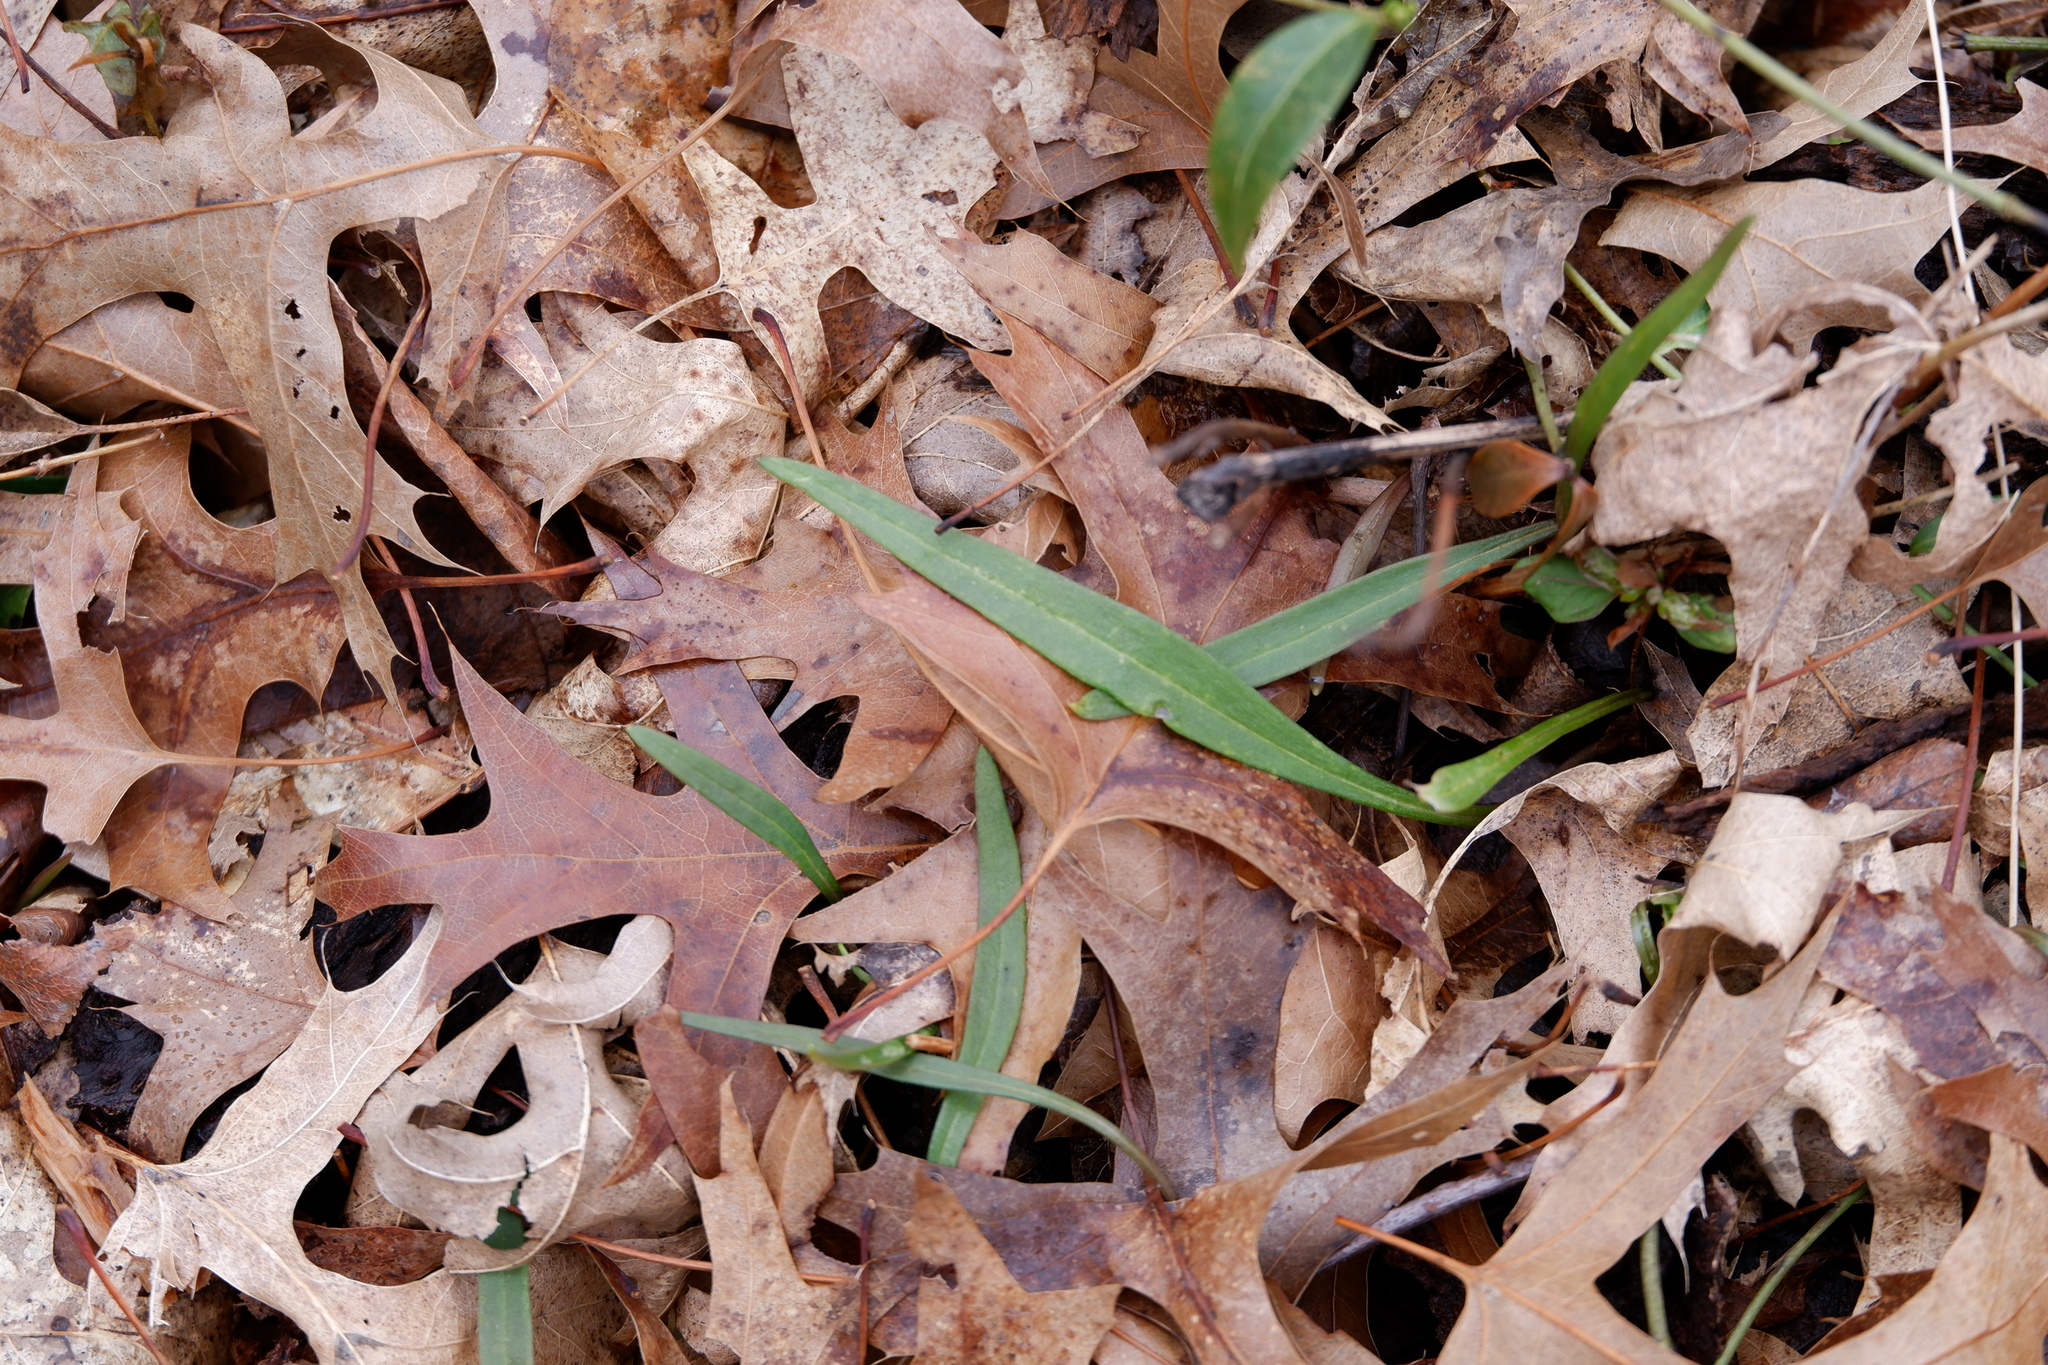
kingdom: Plantae
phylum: Tracheophyta
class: Magnoliopsida
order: Caryophyllales
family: Montiaceae
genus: Claytonia
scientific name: Claytonia virginica
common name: Virginia springbeauty
